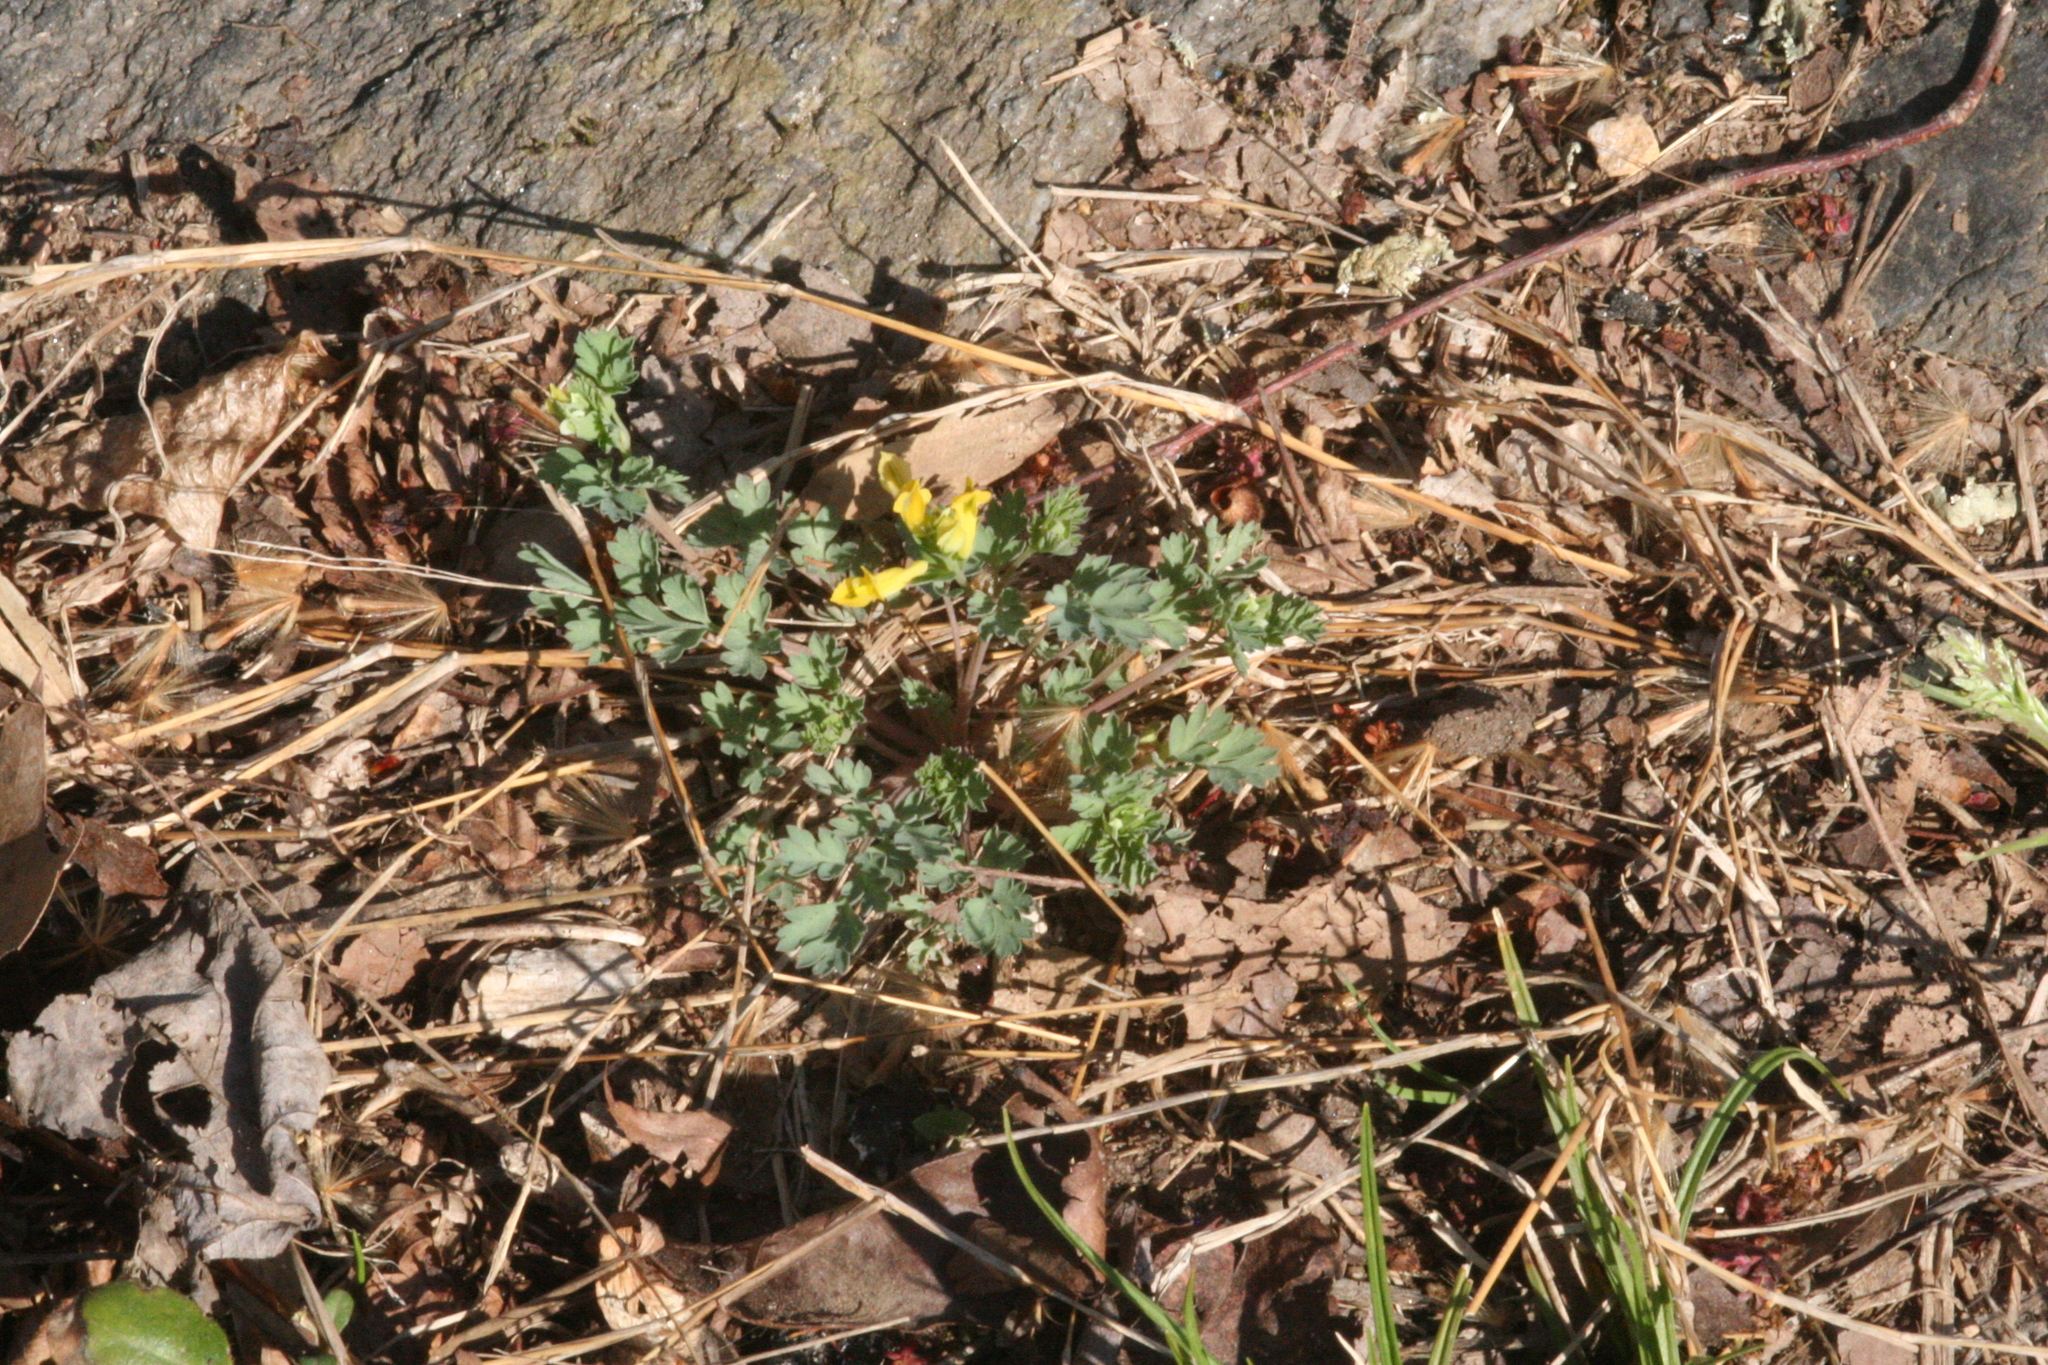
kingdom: Plantae
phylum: Tracheophyta
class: Magnoliopsida
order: Ranunculales
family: Papaveraceae
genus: Corydalis
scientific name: Corydalis flavula
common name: Yellow corydalis
